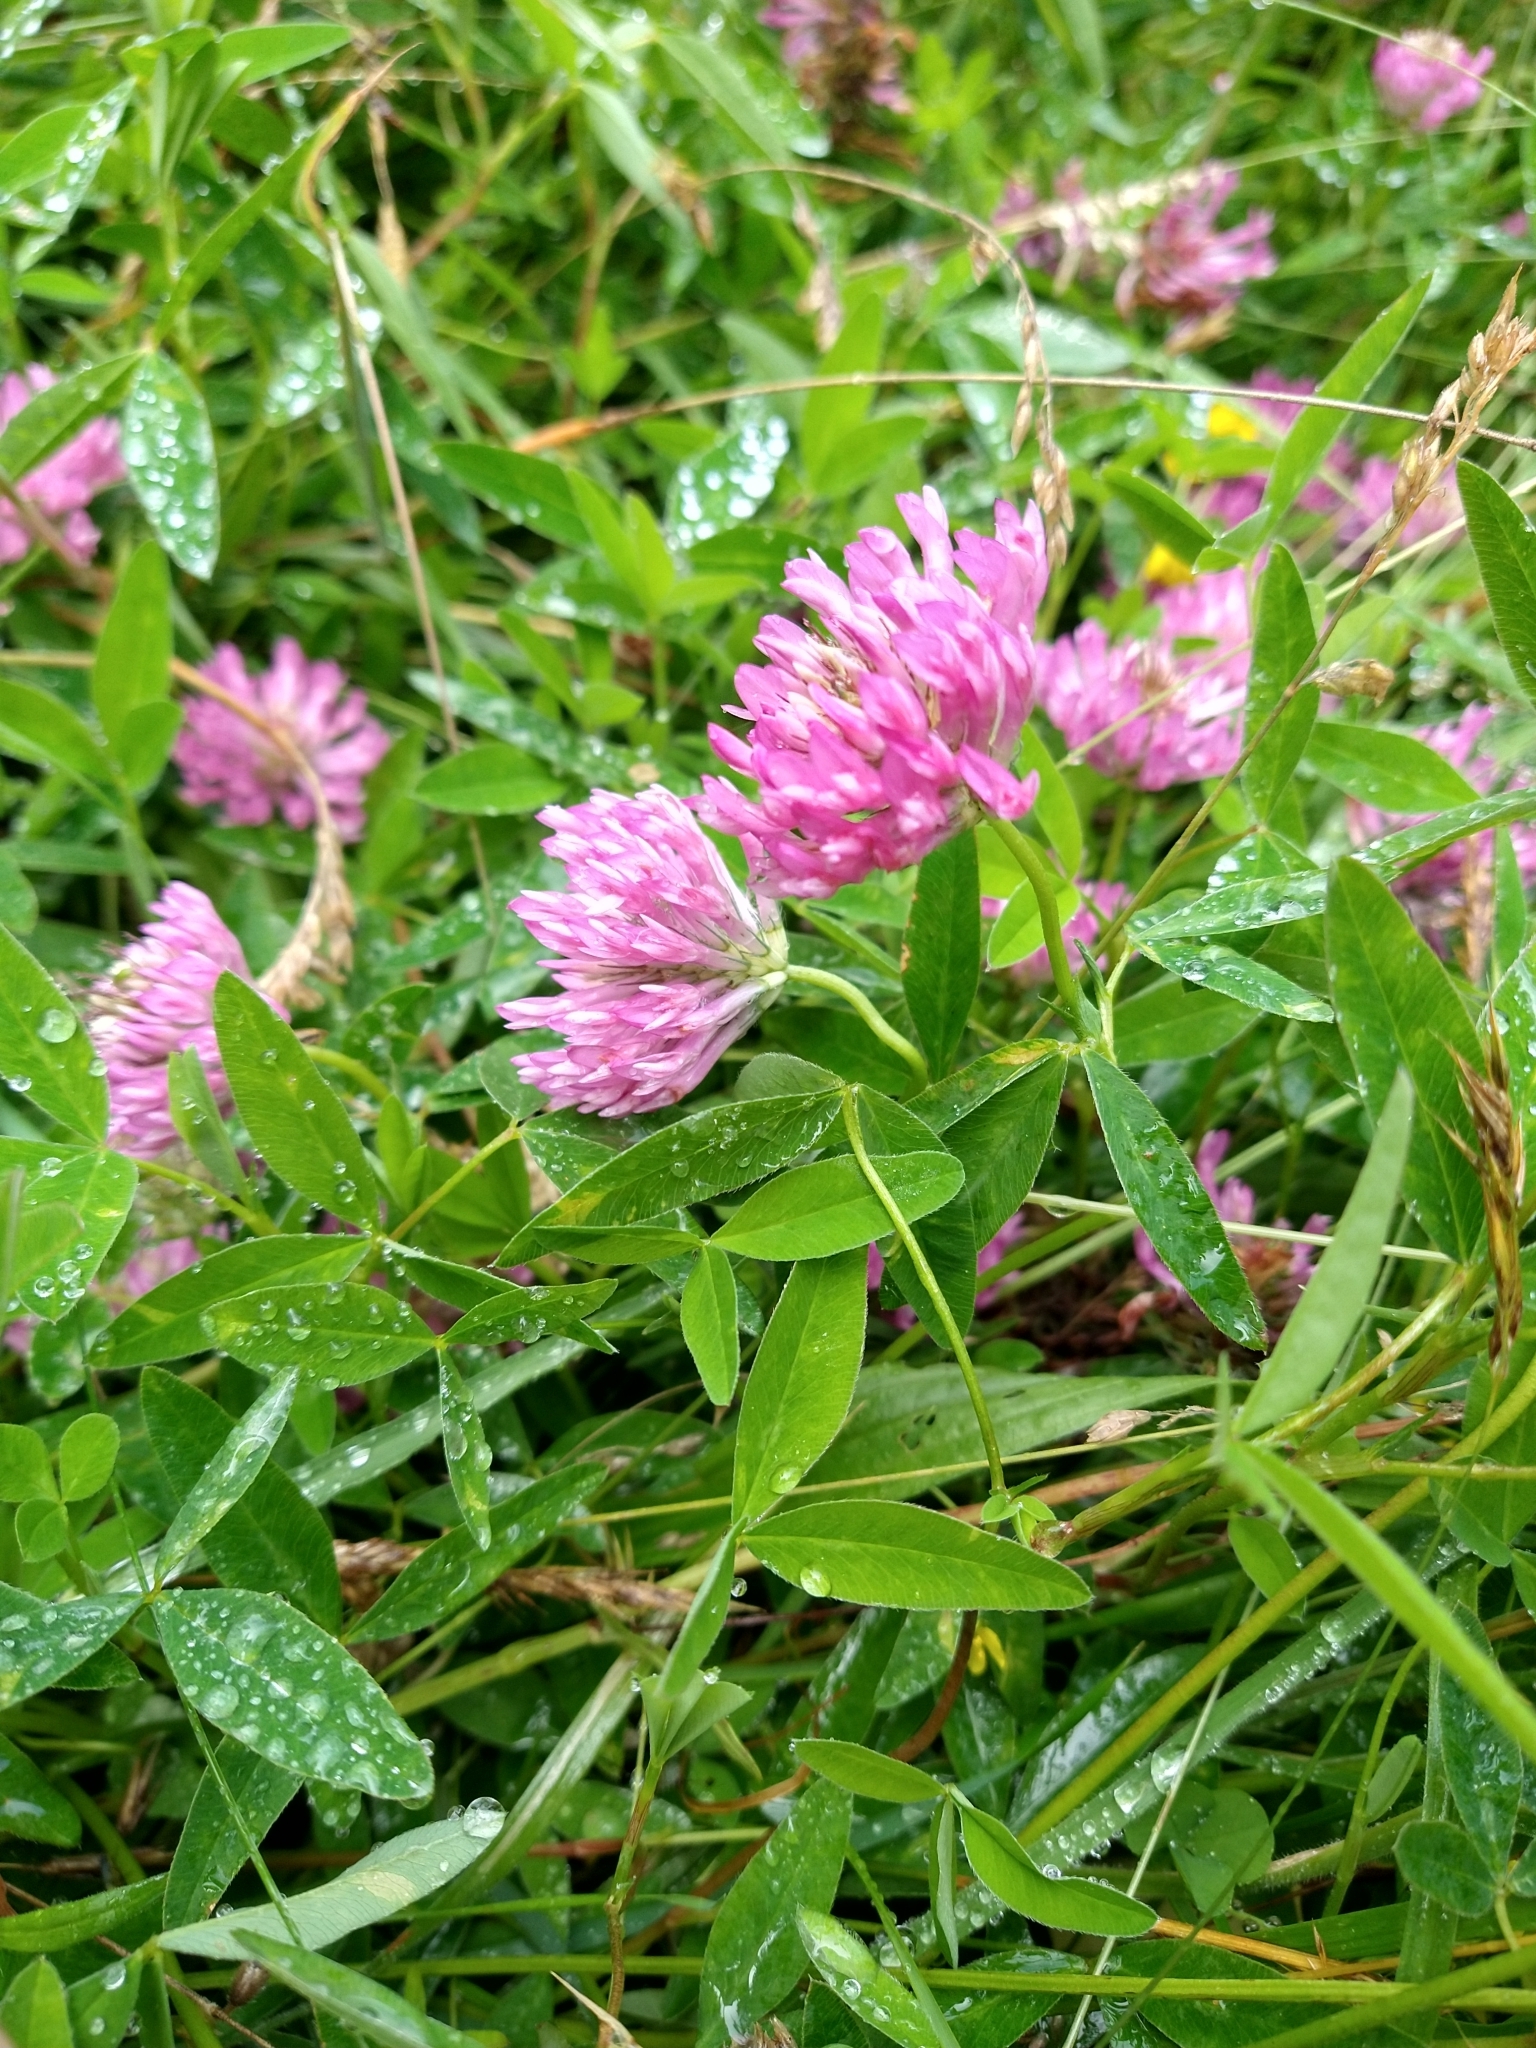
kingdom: Plantae
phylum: Tracheophyta
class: Magnoliopsida
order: Fabales
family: Fabaceae
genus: Trifolium
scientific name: Trifolium medium
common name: Zigzag clover
